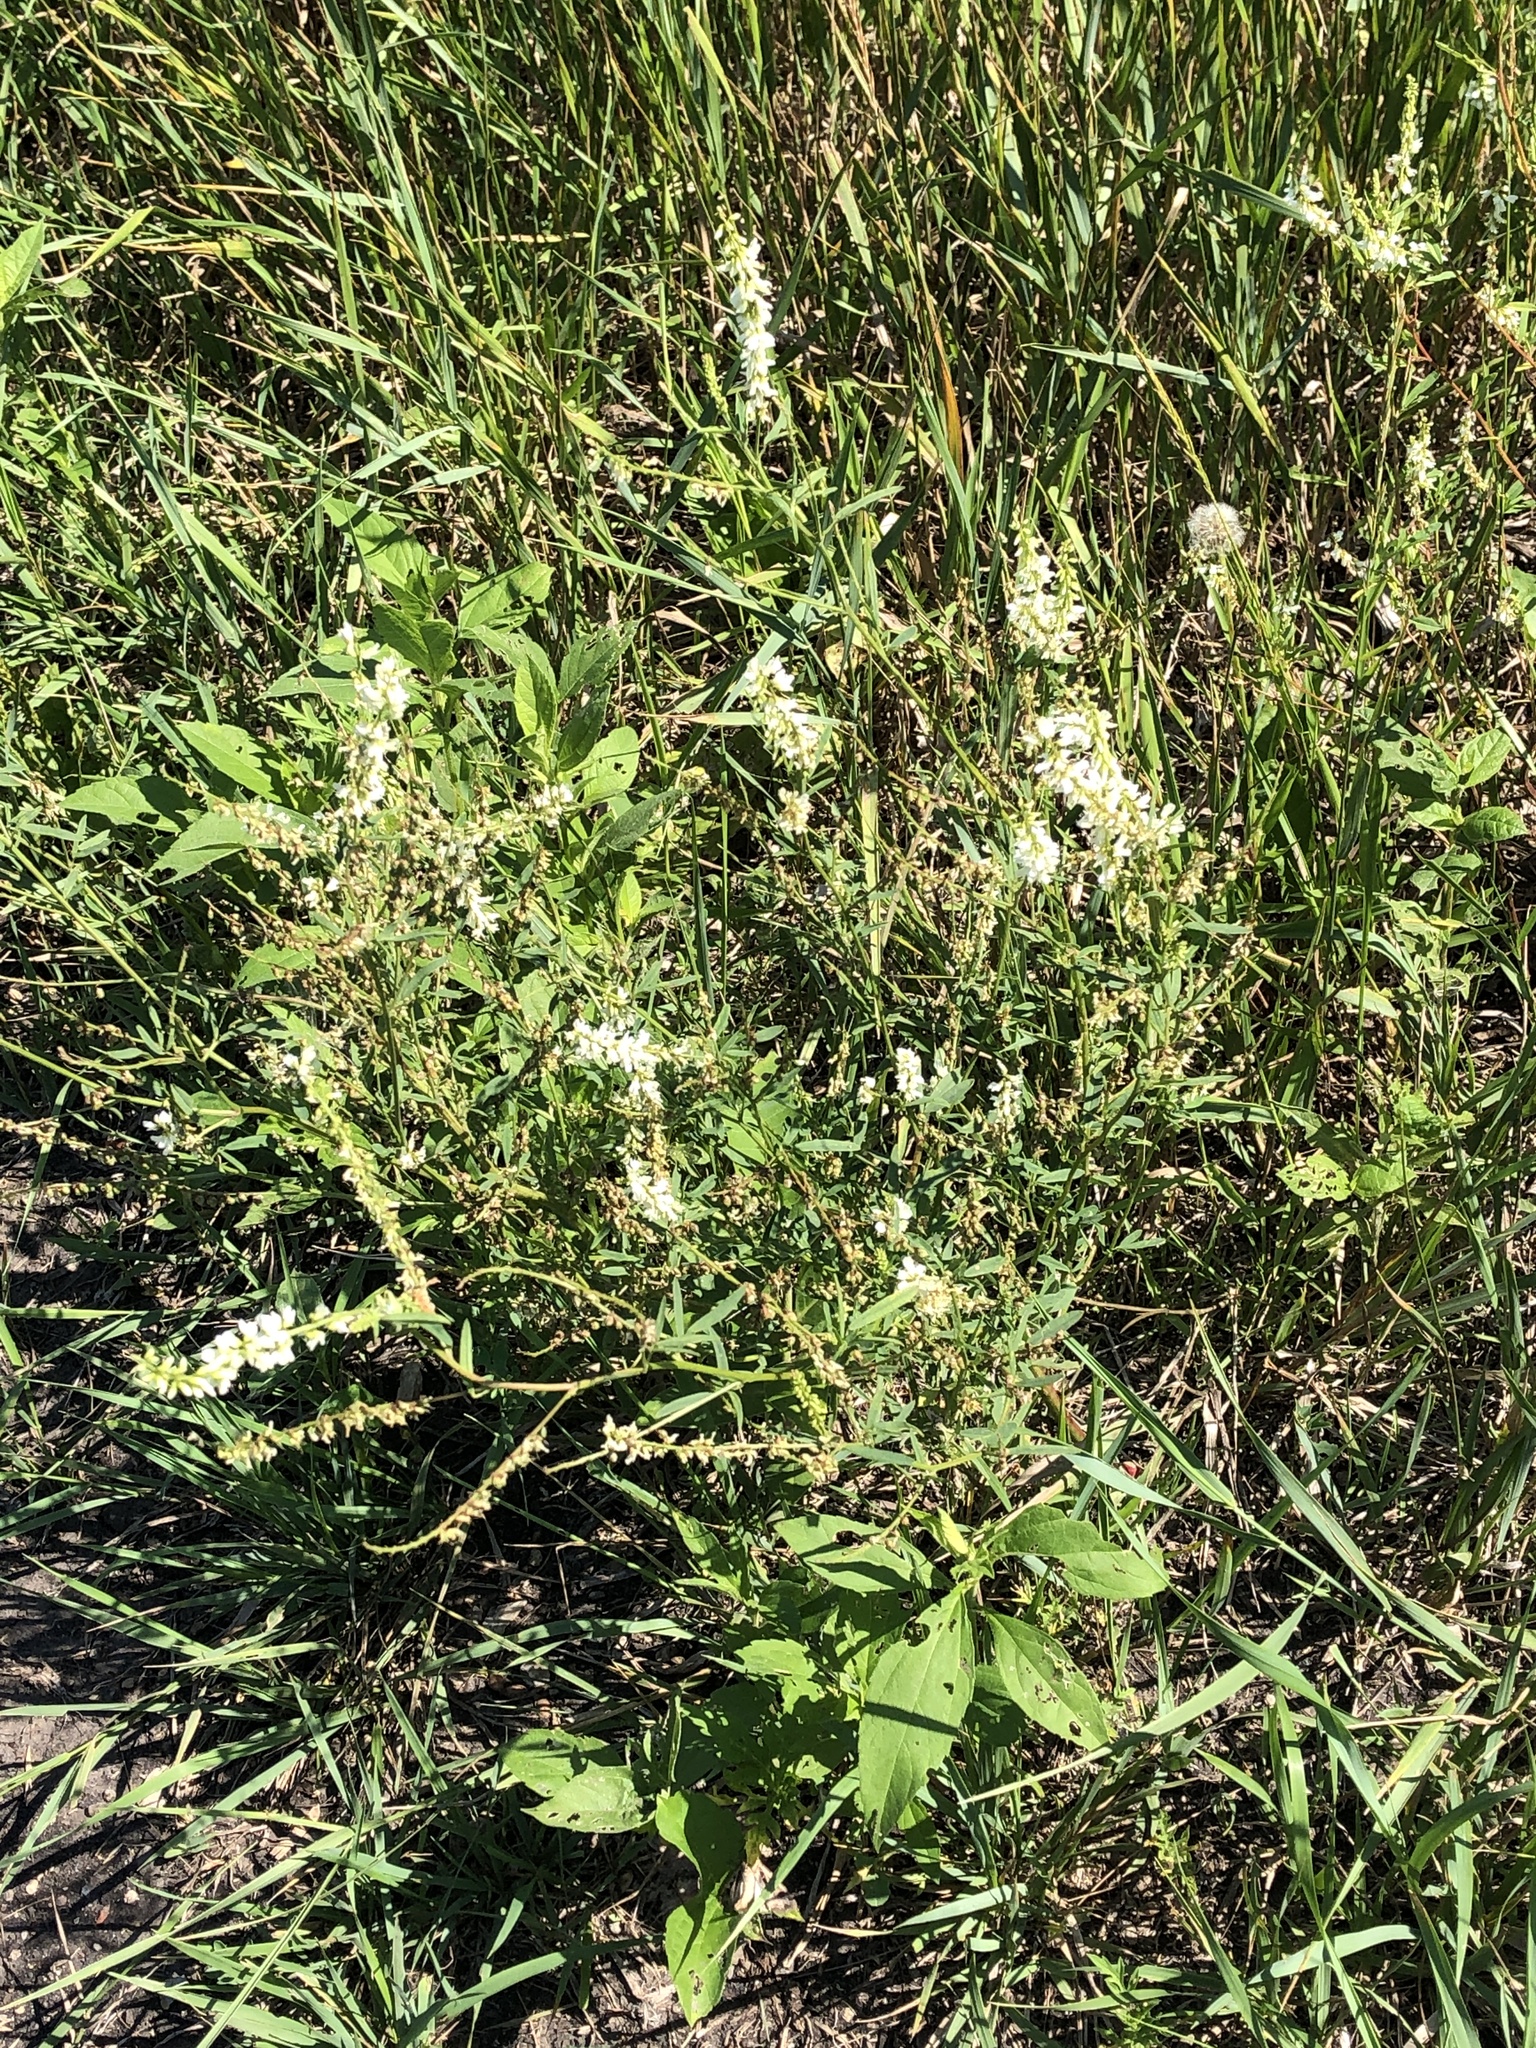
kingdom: Plantae
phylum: Tracheophyta
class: Magnoliopsida
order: Fabales
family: Fabaceae
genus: Melilotus
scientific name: Melilotus albus
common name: White melilot
